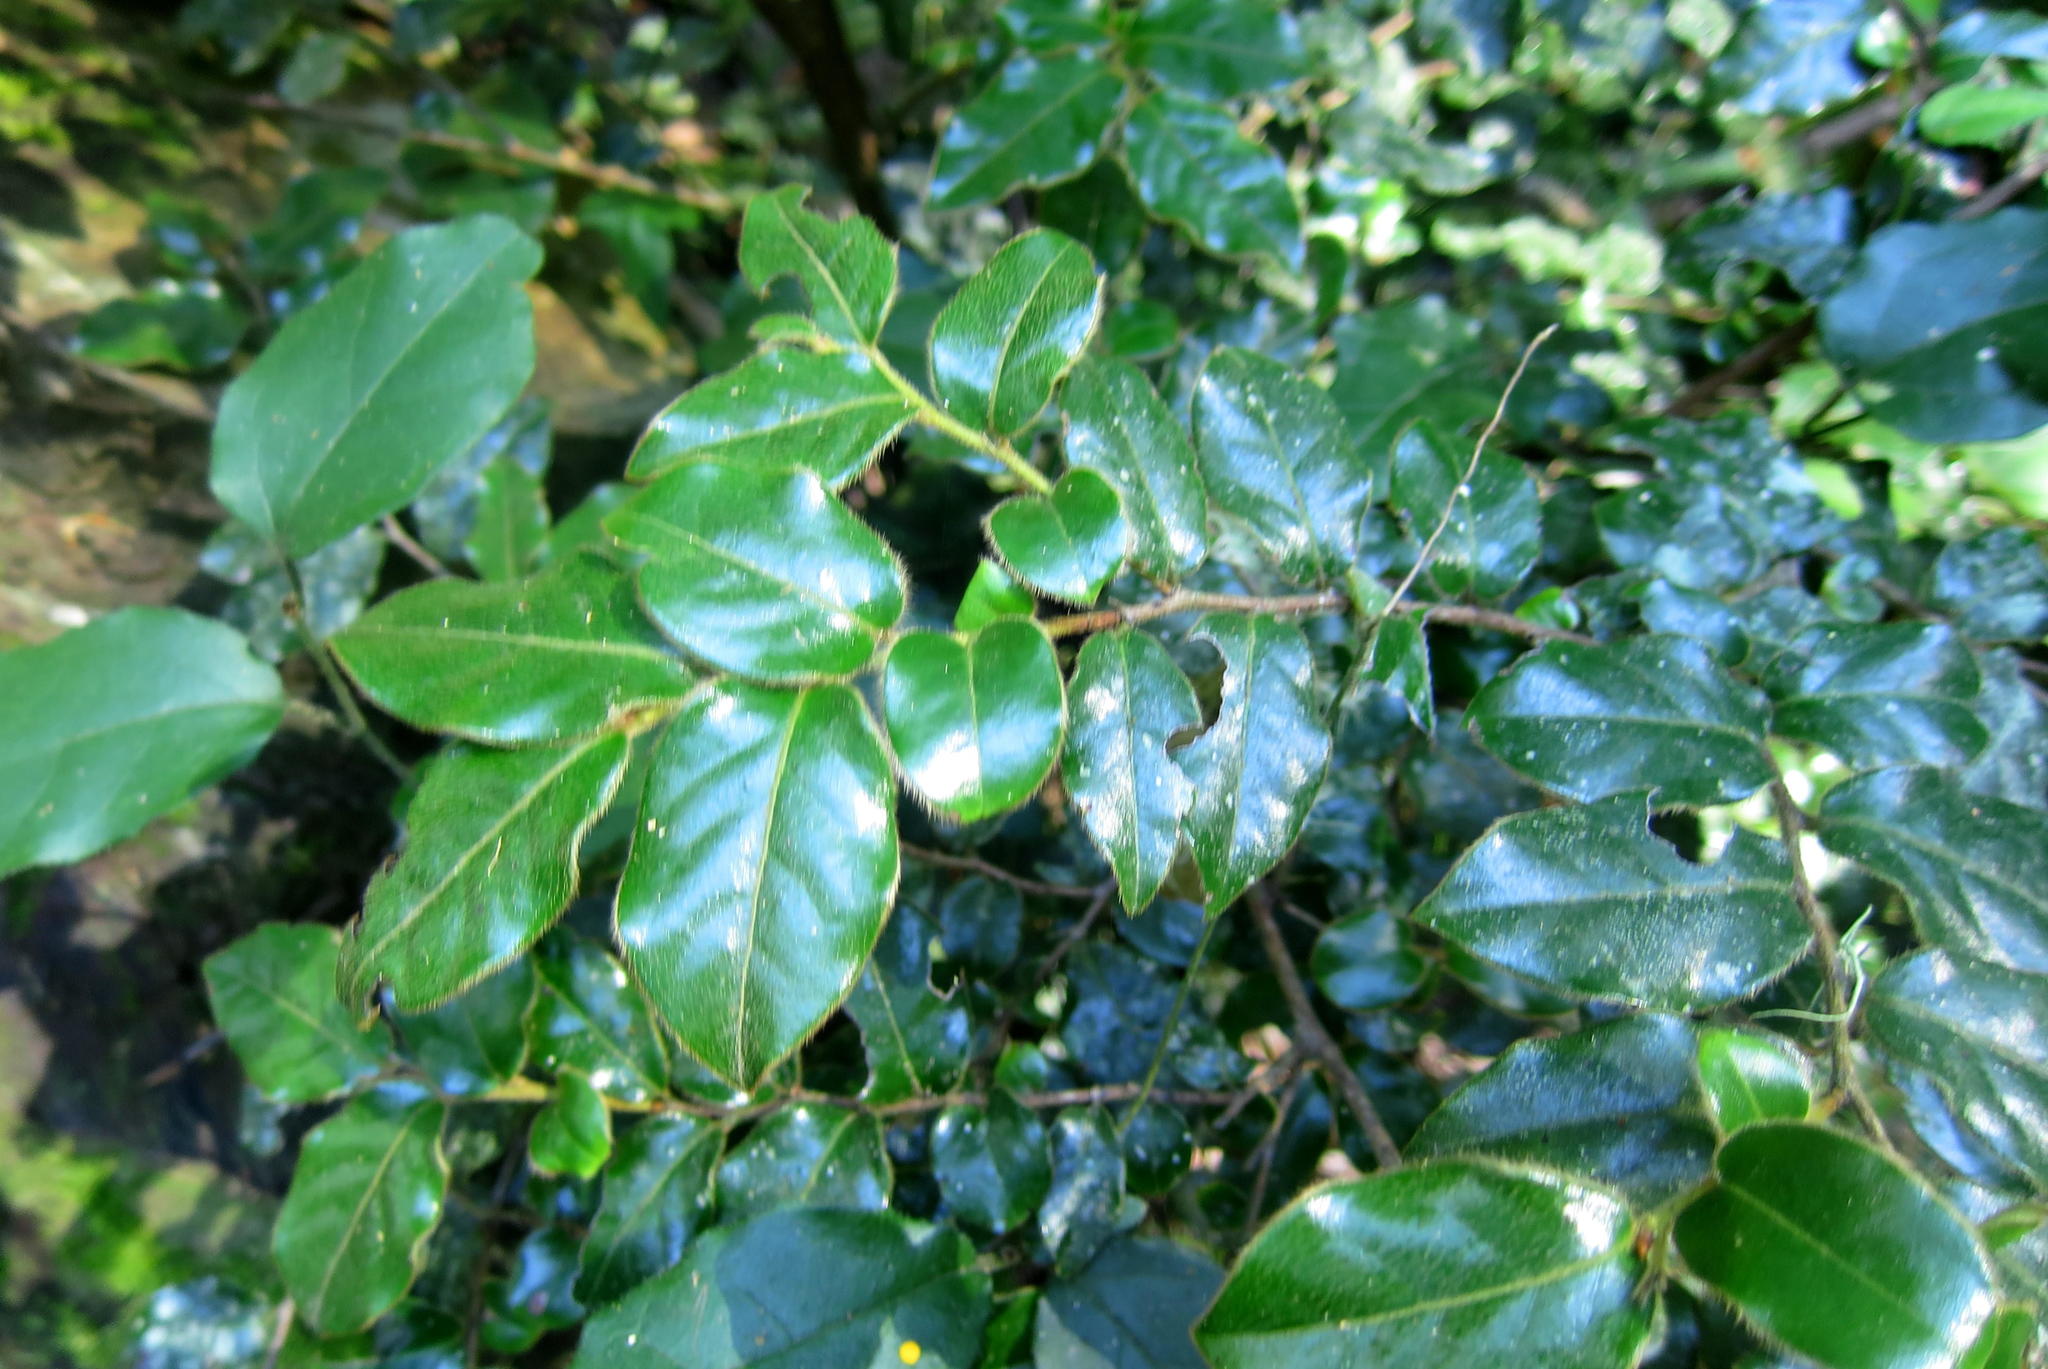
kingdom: Plantae
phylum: Tracheophyta
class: Magnoliopsida
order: Ericales
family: Ebenaceae
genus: Diospyros
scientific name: Diospyros whyteana
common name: Bladder-nut
